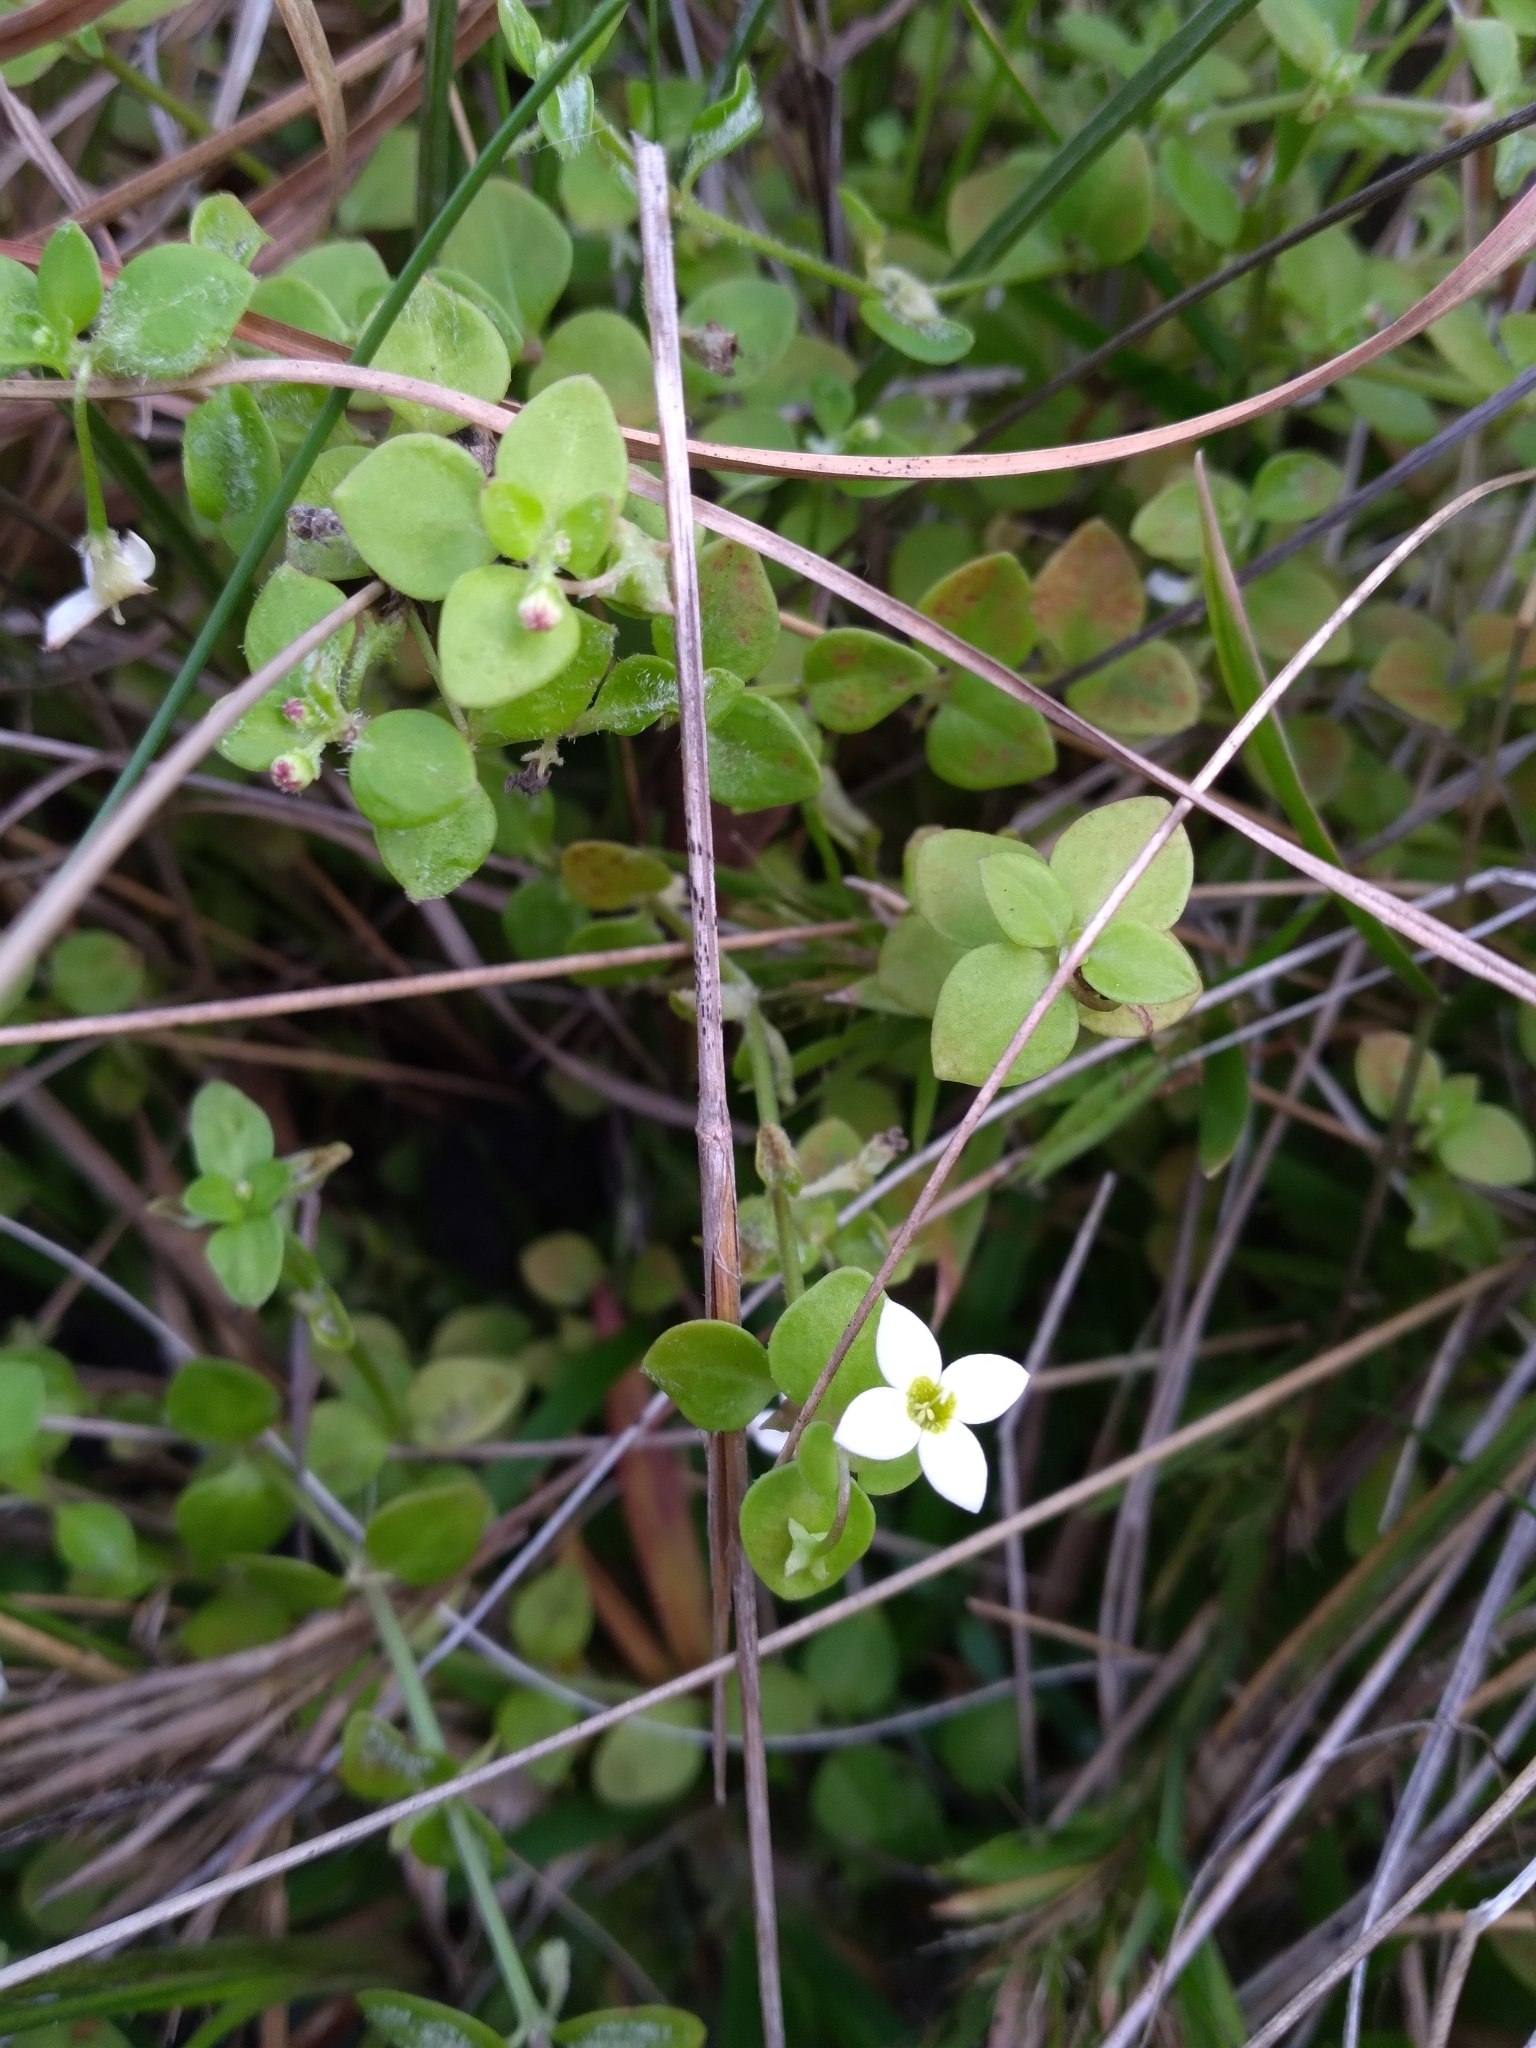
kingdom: Plantae
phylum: Tracheophyta
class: Magnoliopsida
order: Gentianales
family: Rubiaceae
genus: Houstonia
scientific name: Houstonia procumbens
